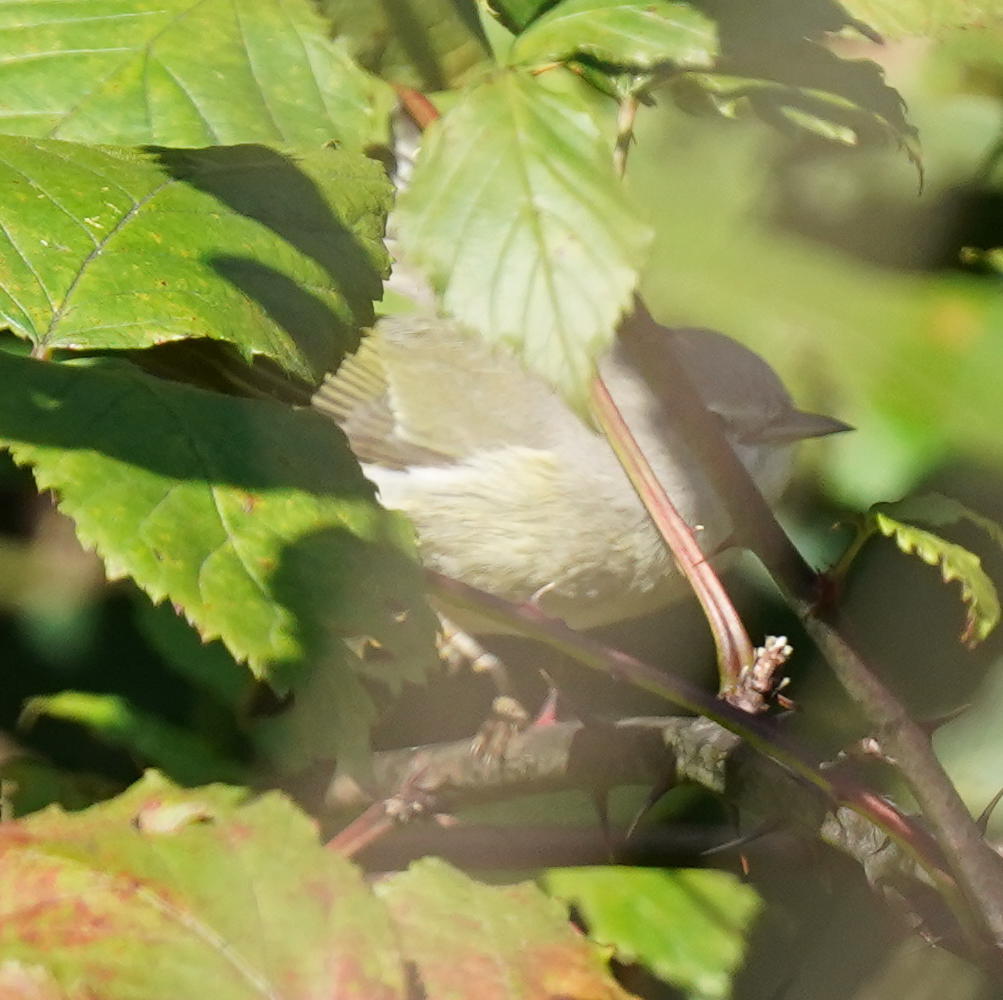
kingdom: Animalia
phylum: Chordata
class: Aves
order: Passeriformes
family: Parulidae
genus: Leiothlypis
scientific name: Leiothlypis celata
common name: Orange-crowned warbler
